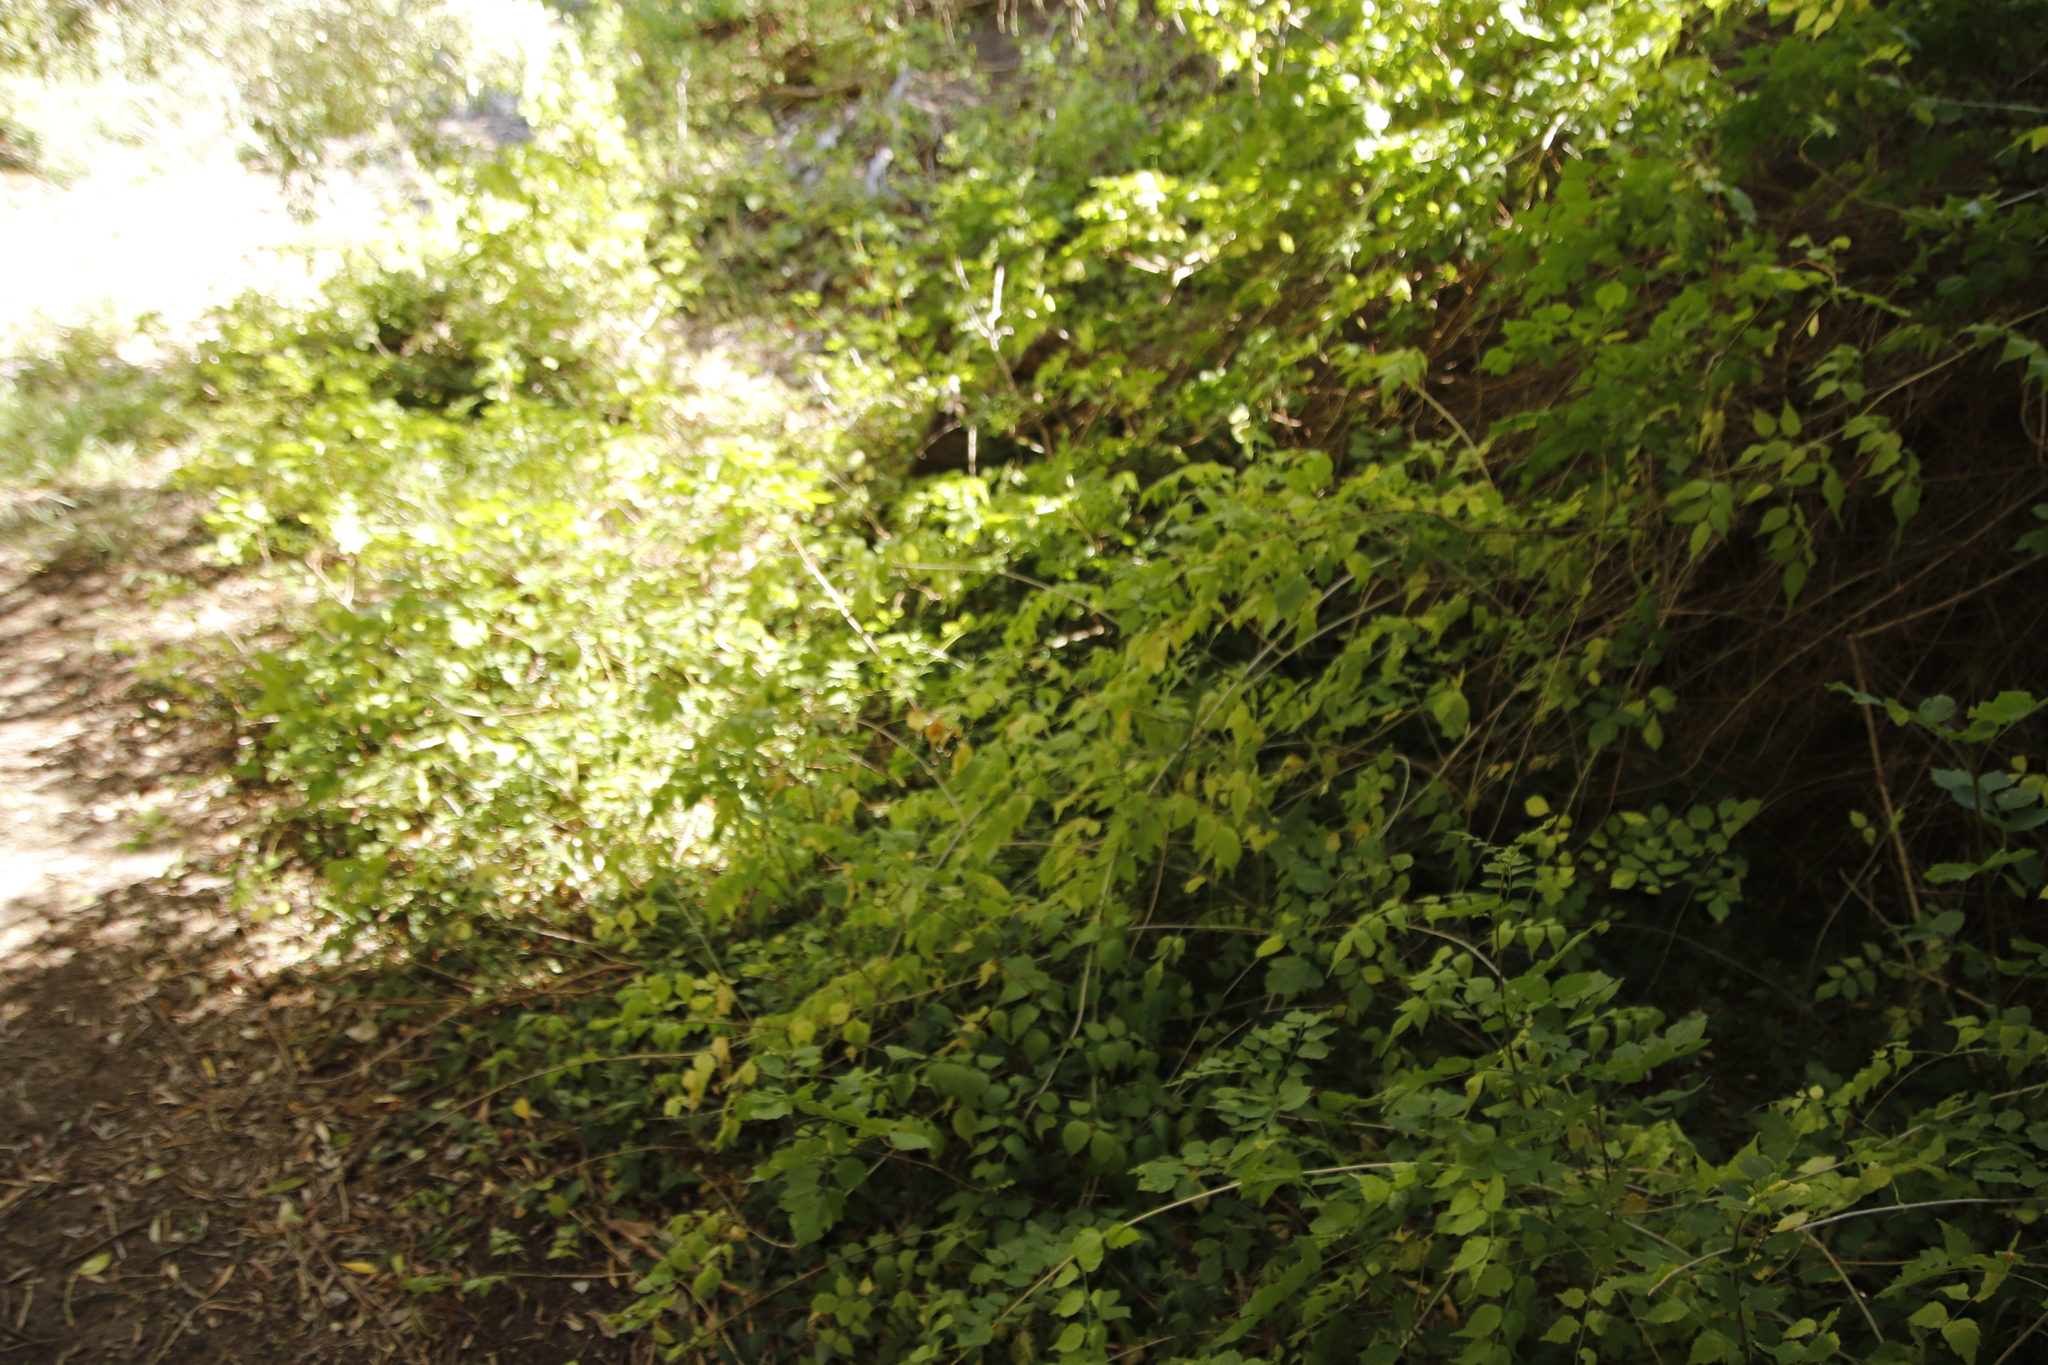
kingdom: Plantae
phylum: Tracheophyta
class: Magnoliopsida
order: Lamiales
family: Bignoniaceae
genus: Tecomaria
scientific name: Tecomaria capensis
